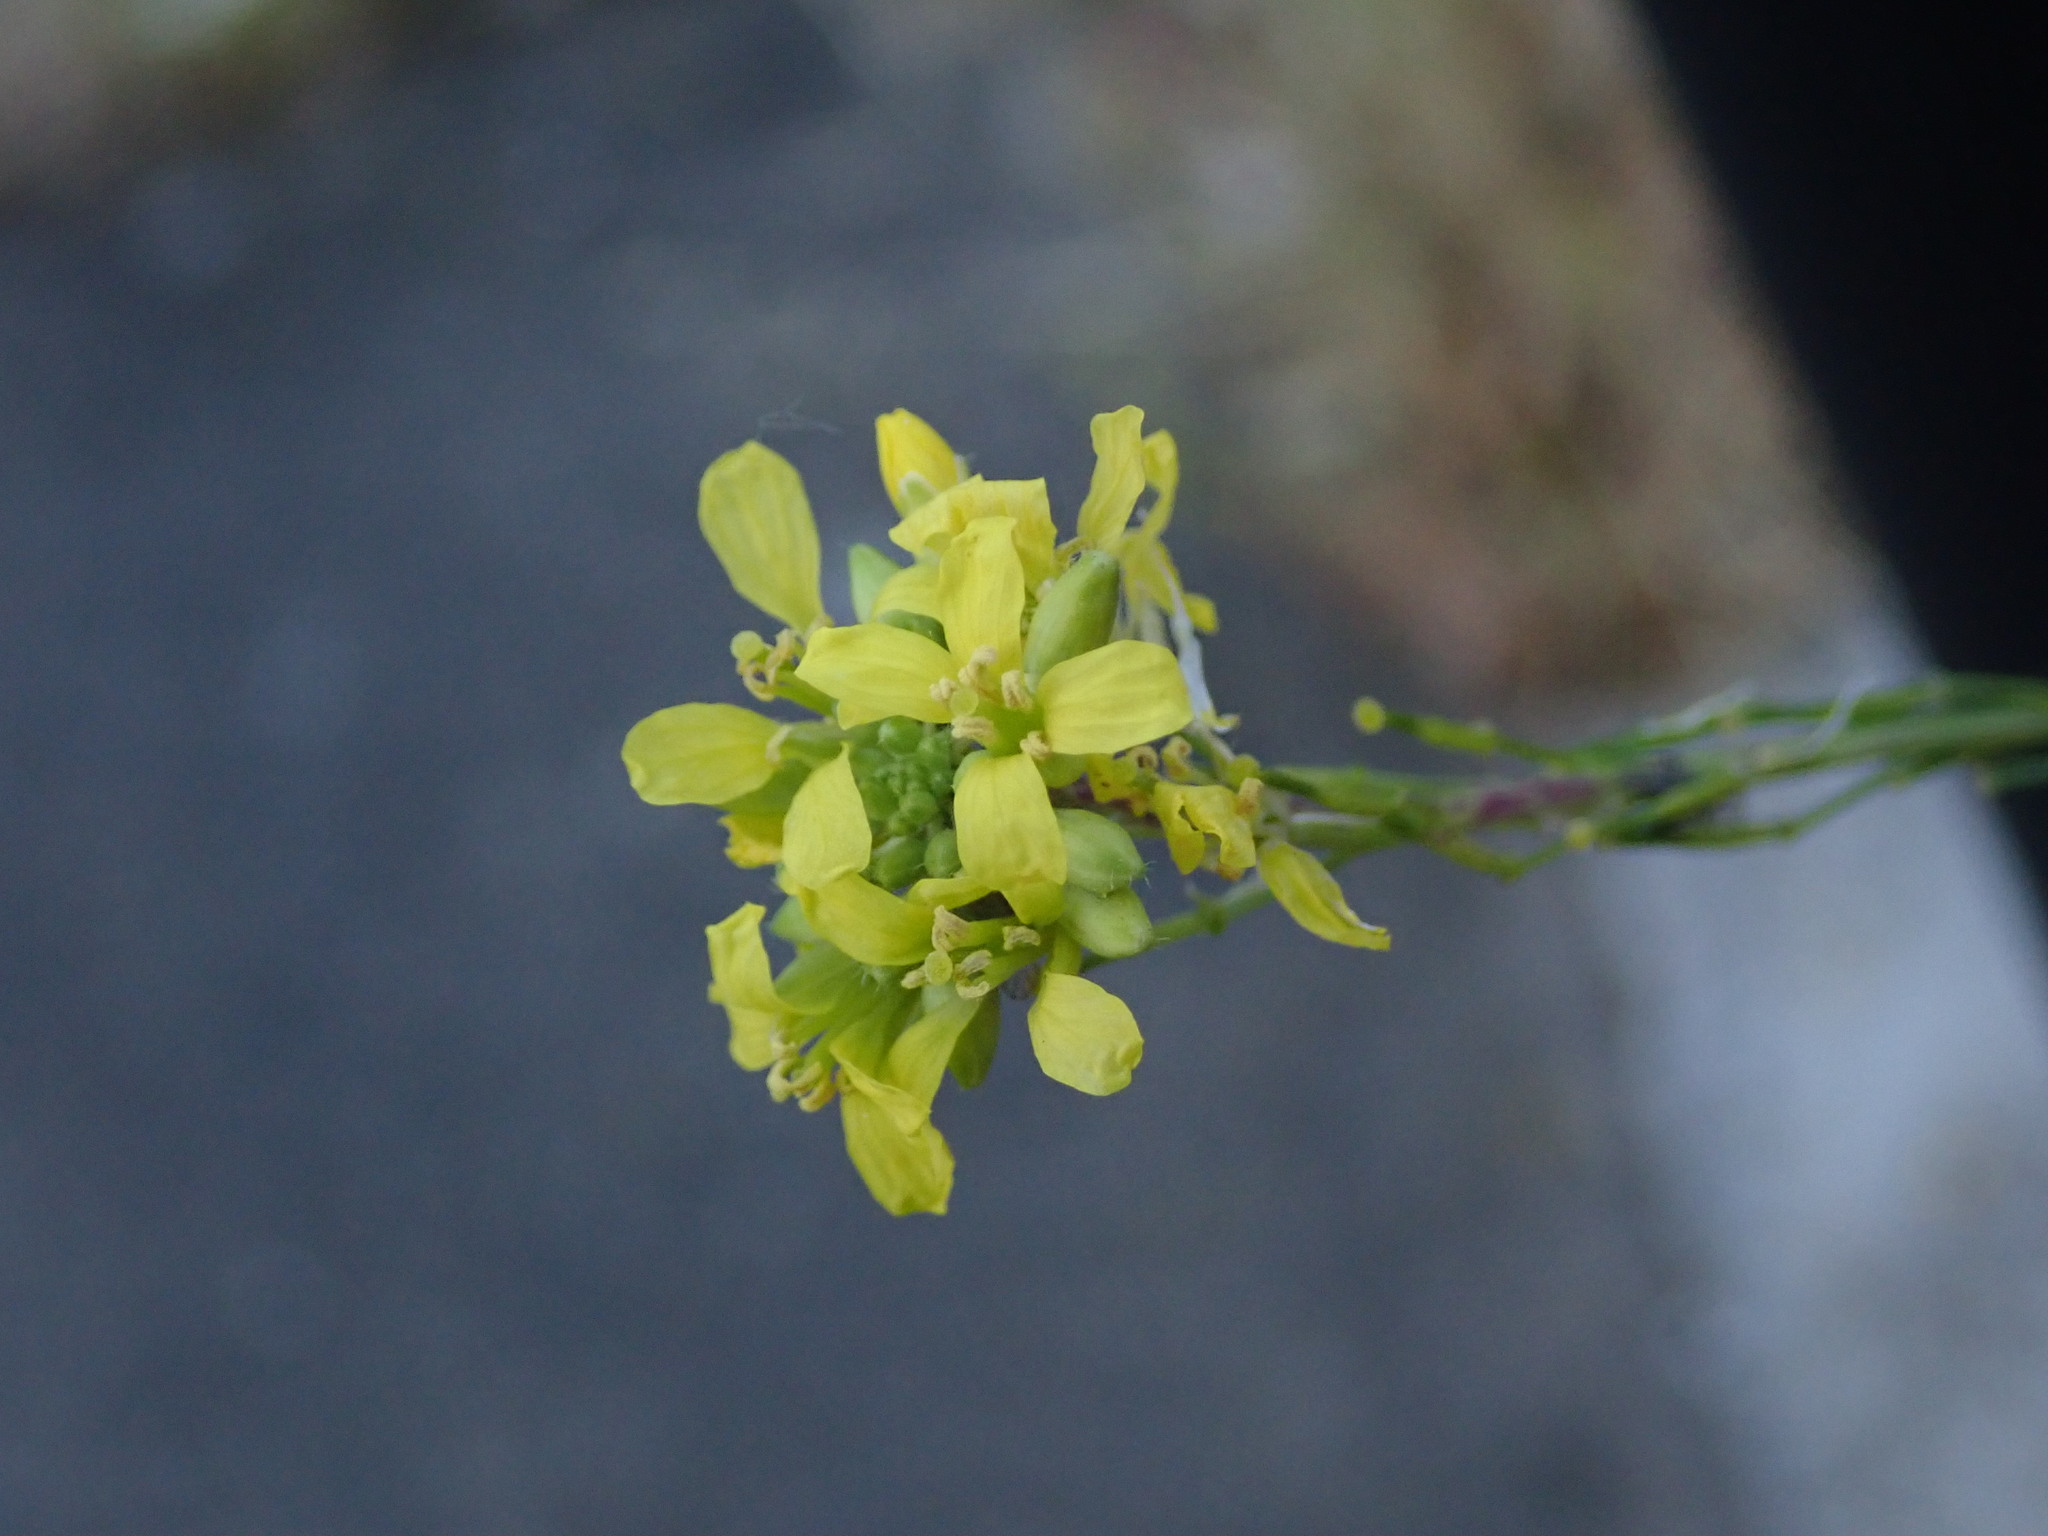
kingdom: Plantae
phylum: Tracheophyta
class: Magnoliopsida
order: Brassicales
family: Brassicaceae
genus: Hirschfeldia
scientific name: Hirschfeldia incana
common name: Hoary mustard
